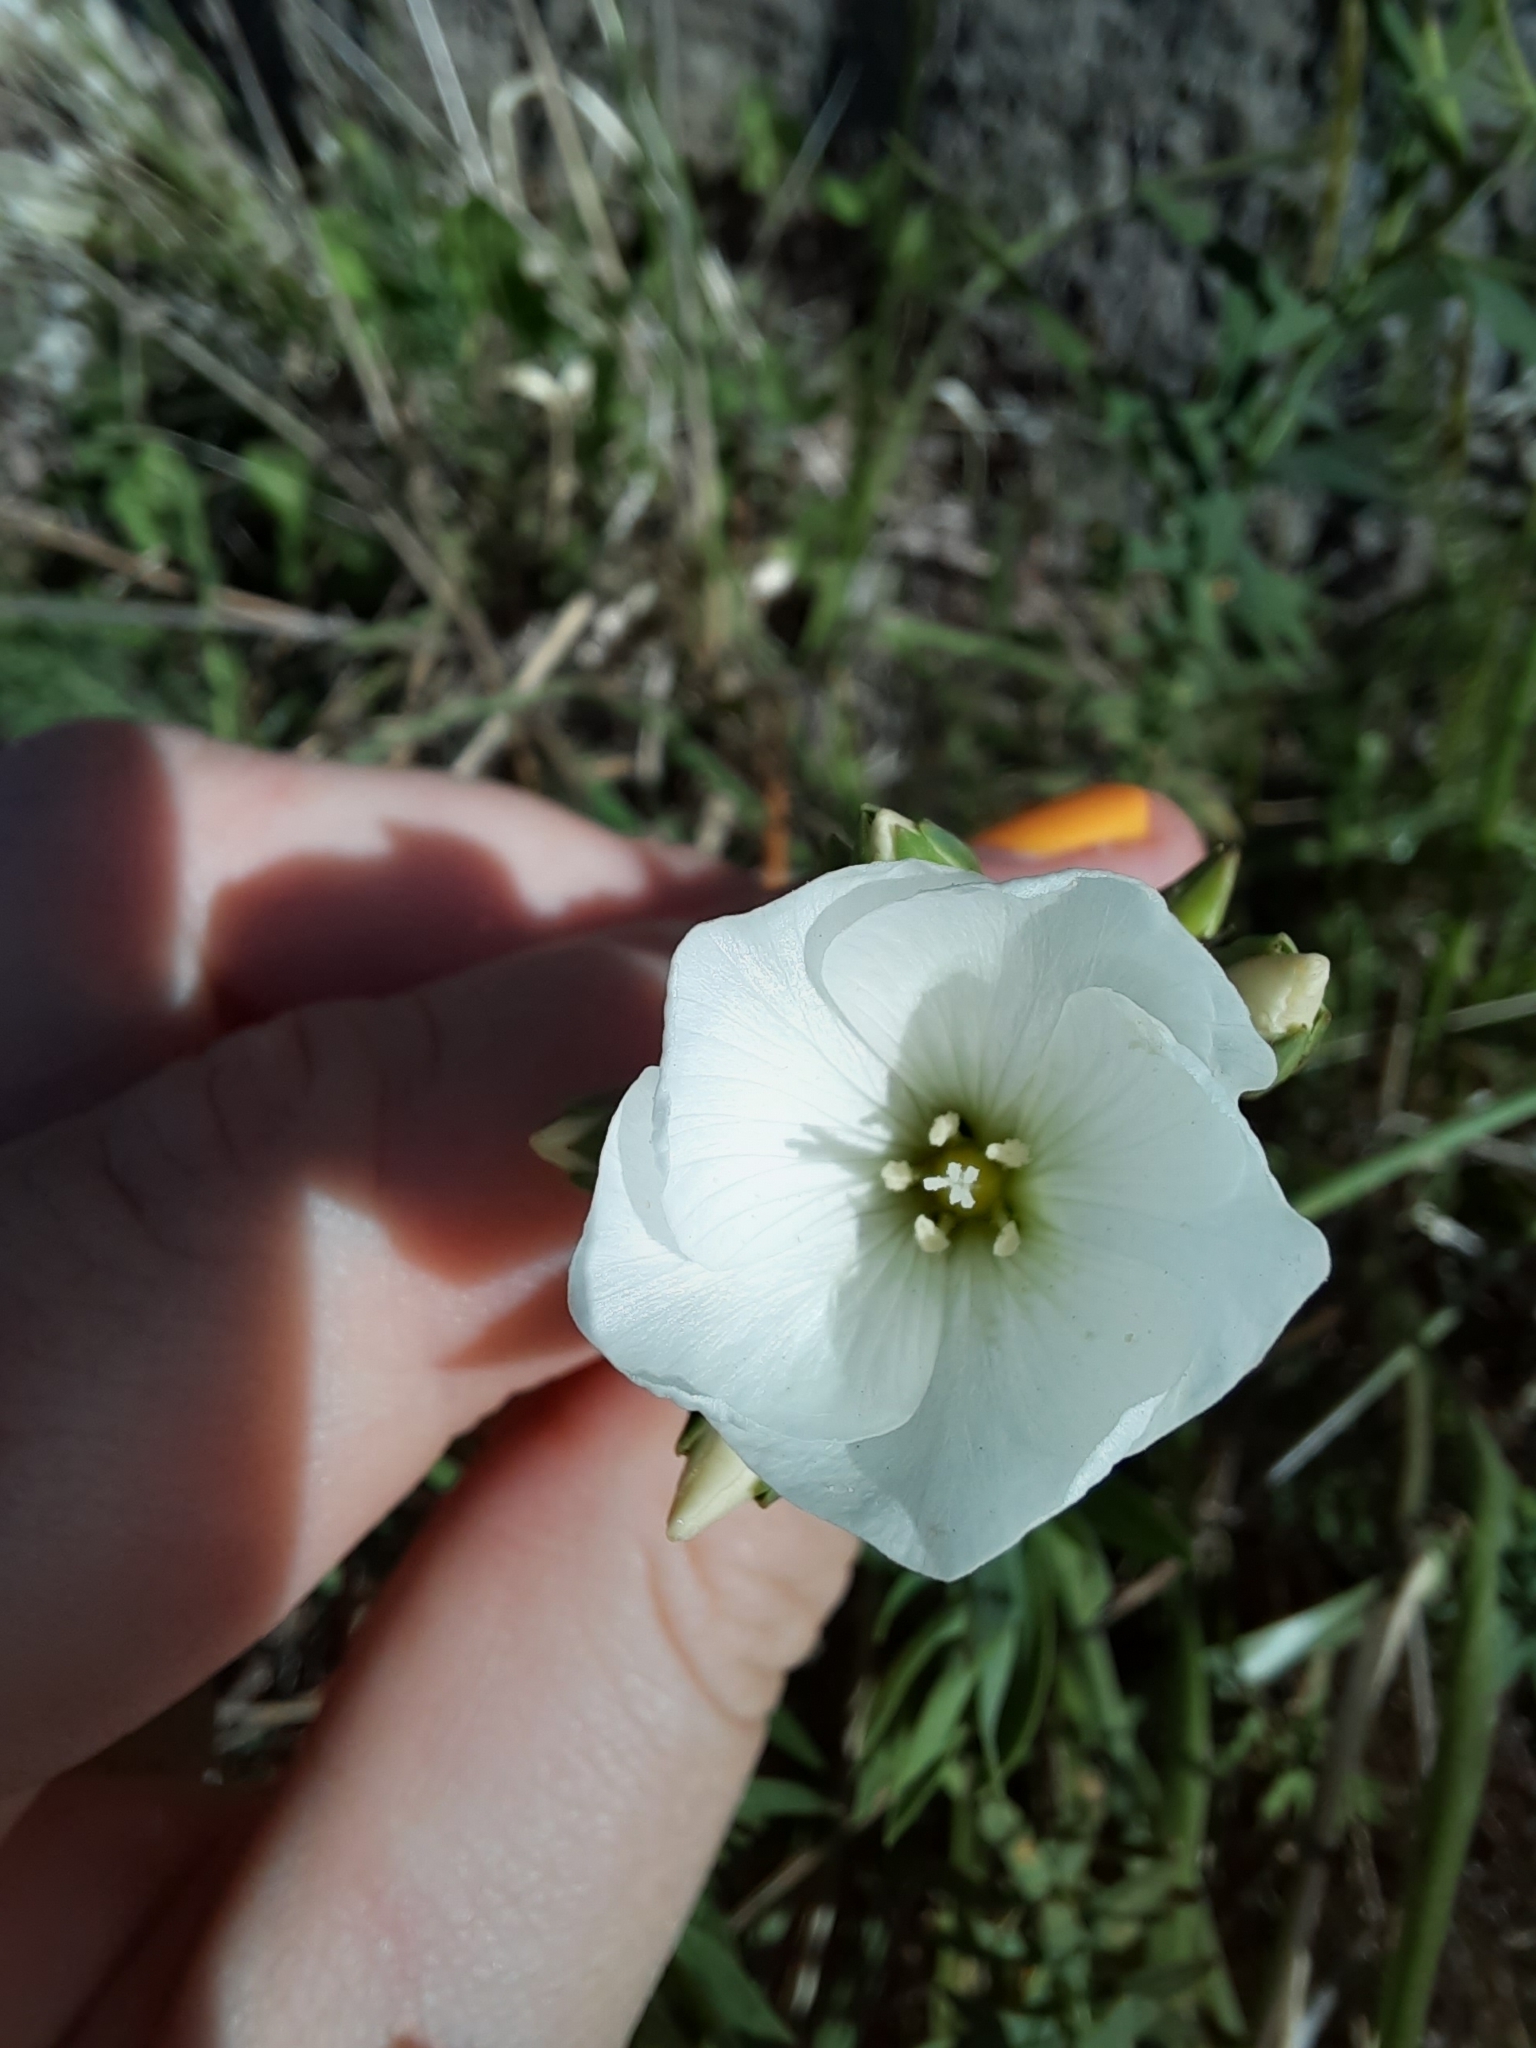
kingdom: Plantae
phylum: Tracheophyta
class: Magnoliopsida
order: Malpighiales
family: Linaceae
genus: Linum
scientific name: Linum monogynum
